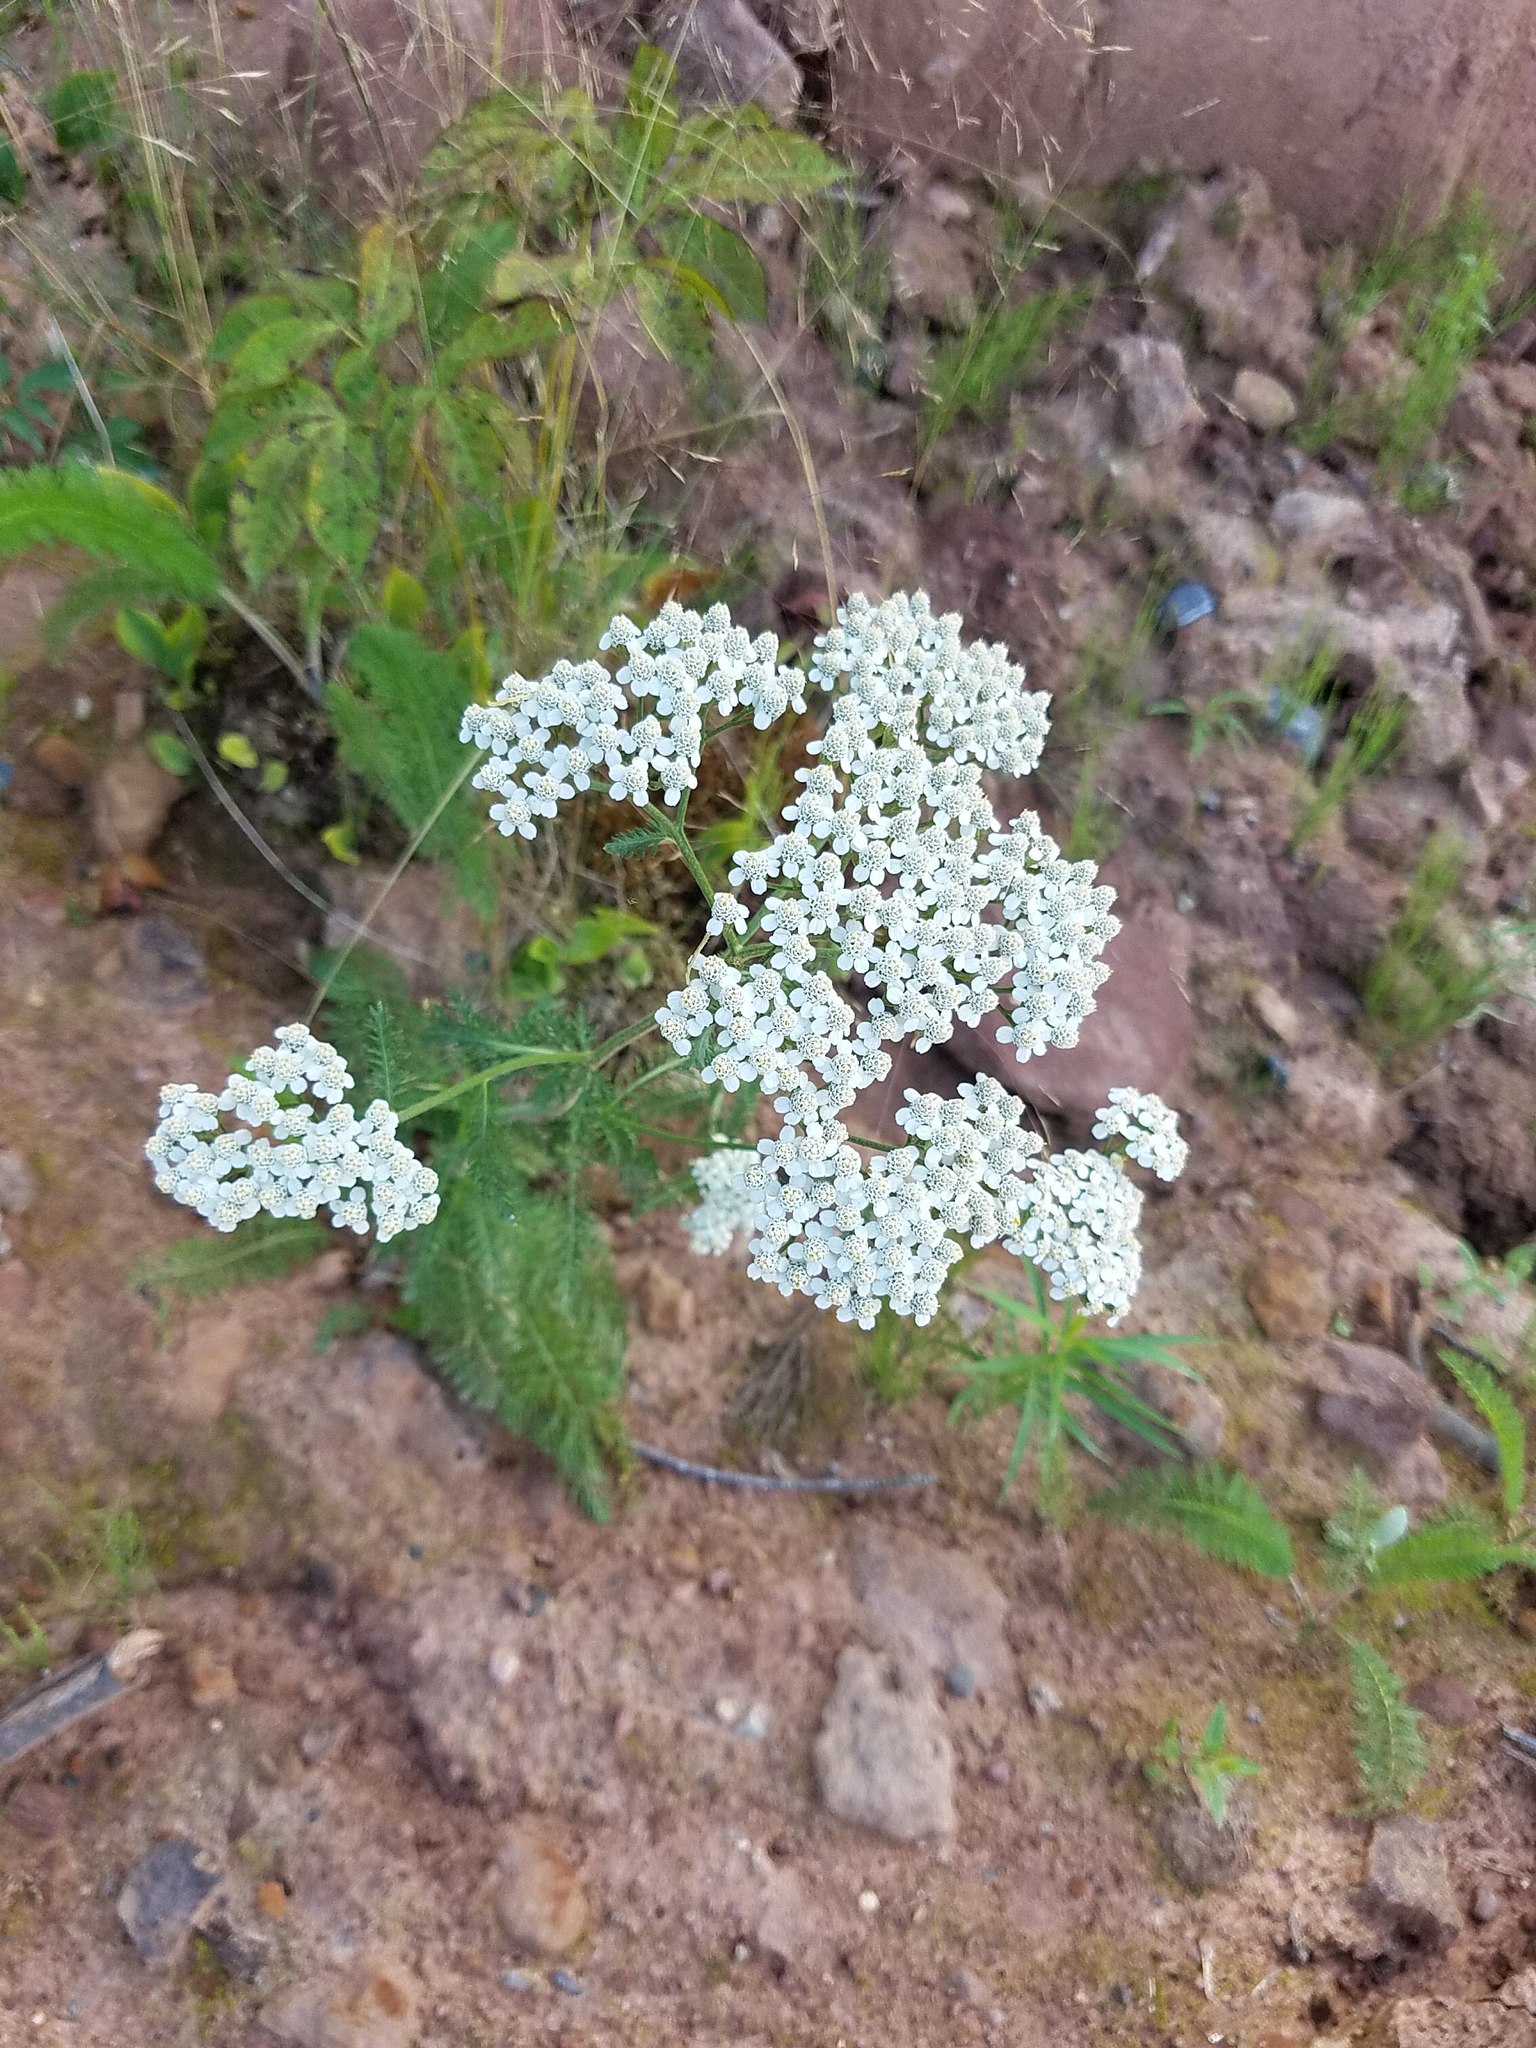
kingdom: Plantae
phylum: Tracheophyta
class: Magnoliopsida
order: Asterales
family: Asteraceae
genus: Achillea
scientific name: Achillea millefolium
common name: Yarrow
